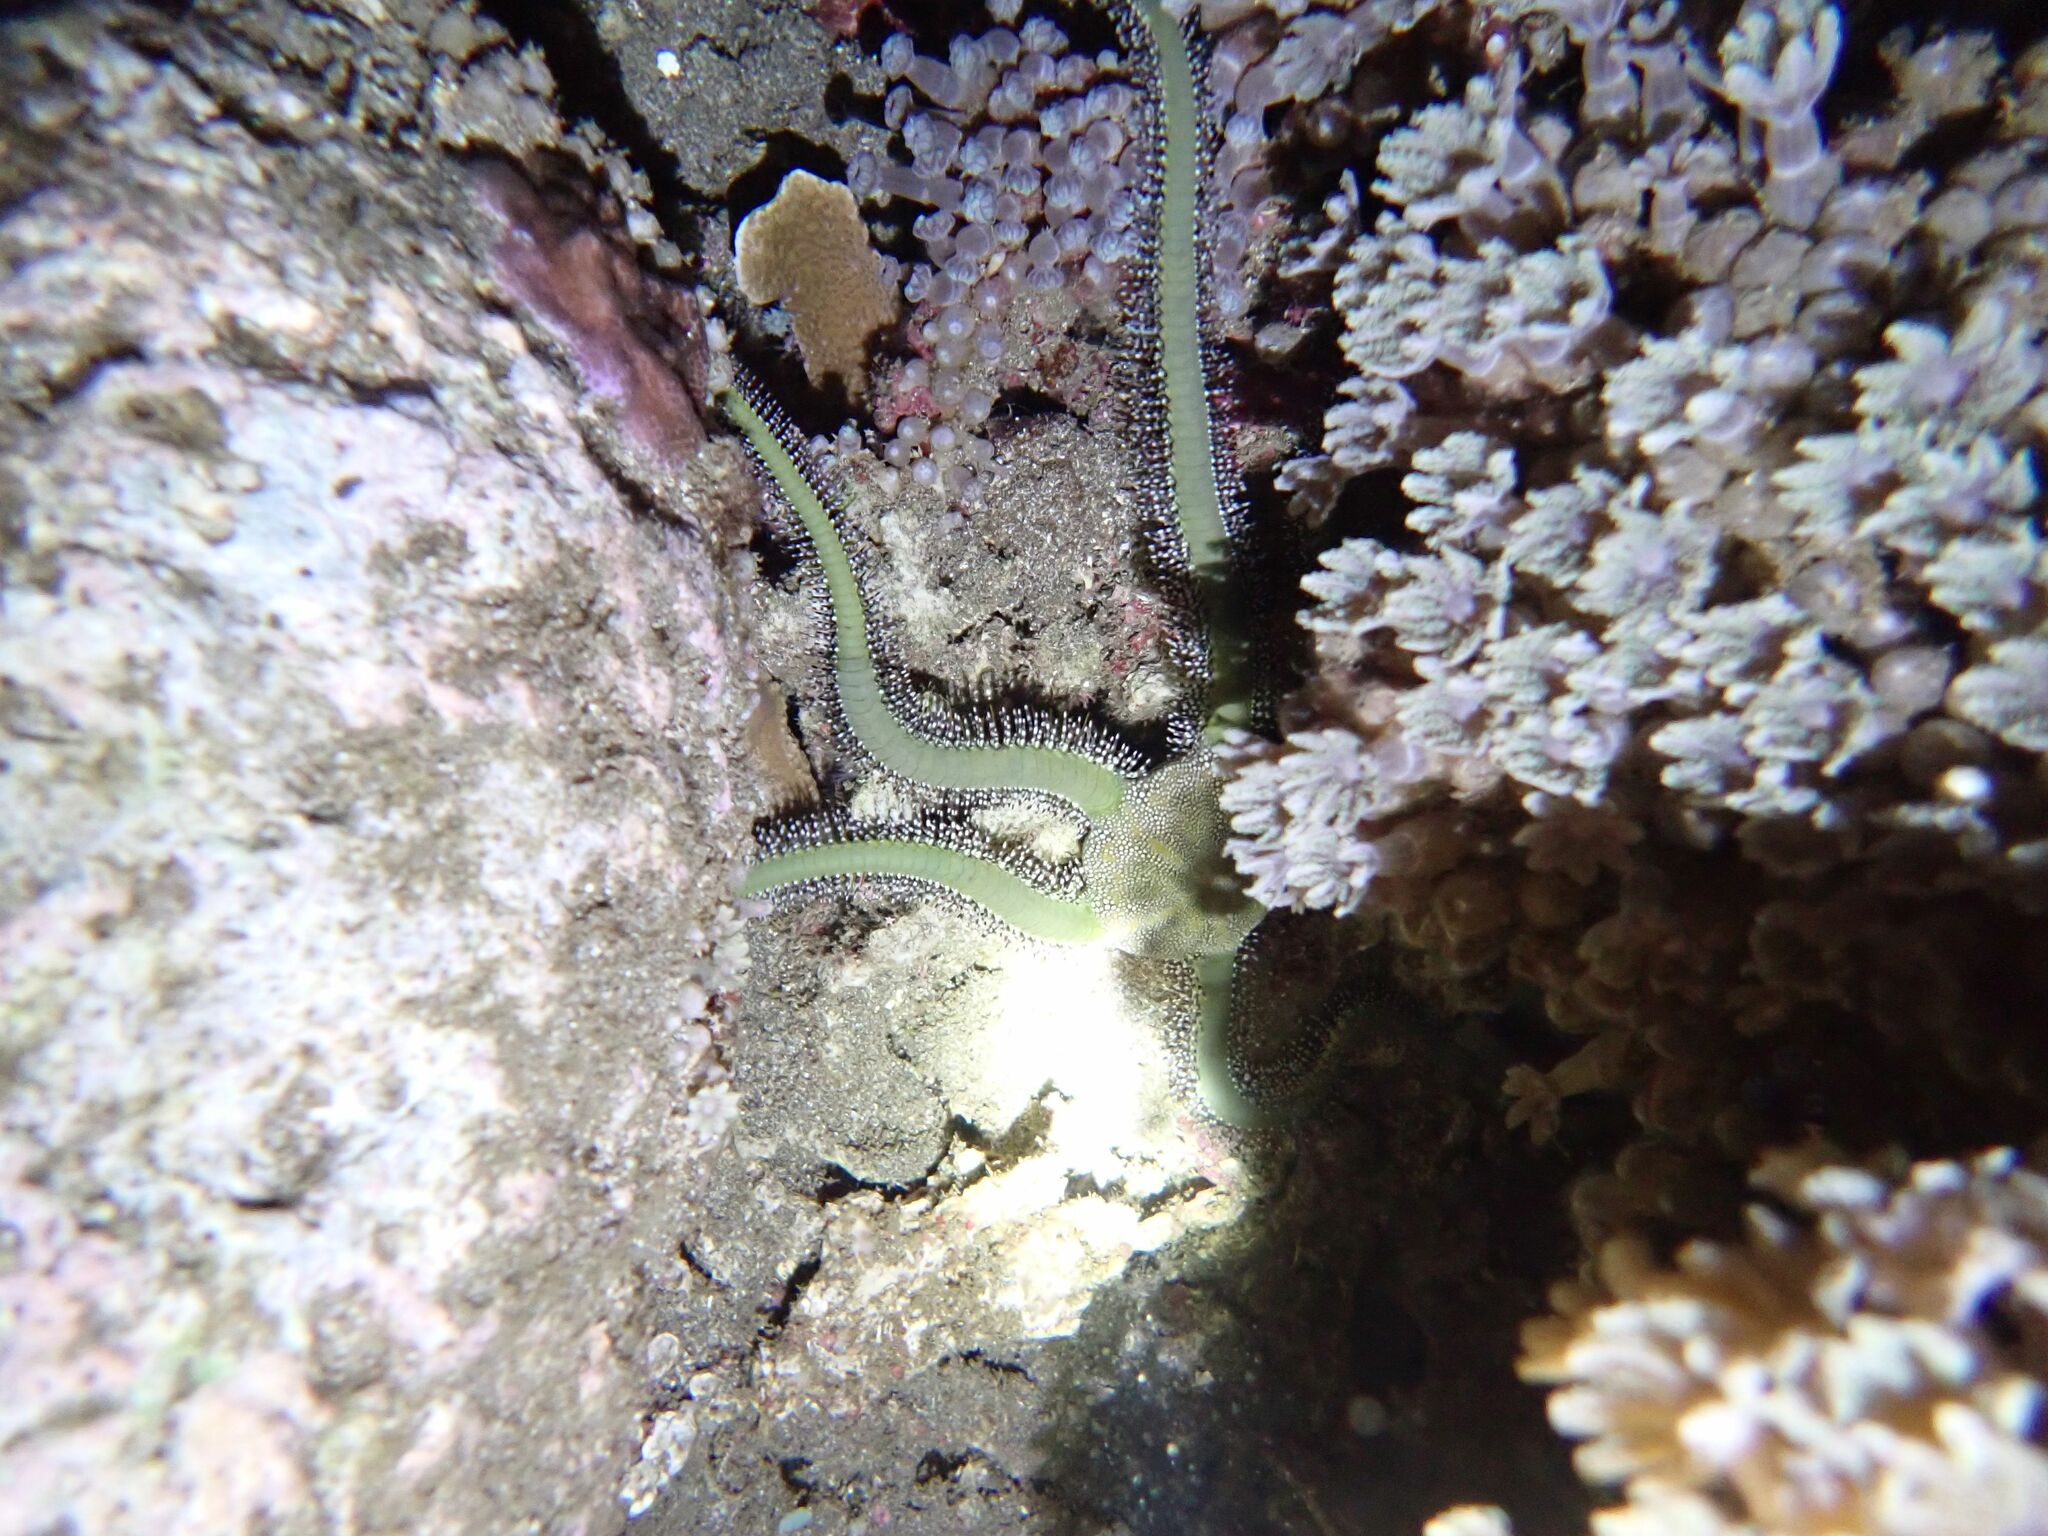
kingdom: Animalia
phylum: Echinodermata
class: Ophiuroidea
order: Ophiacanthida
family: Ophiomyxidae
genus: Ophiarachna
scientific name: Ophiarachna incrassata
